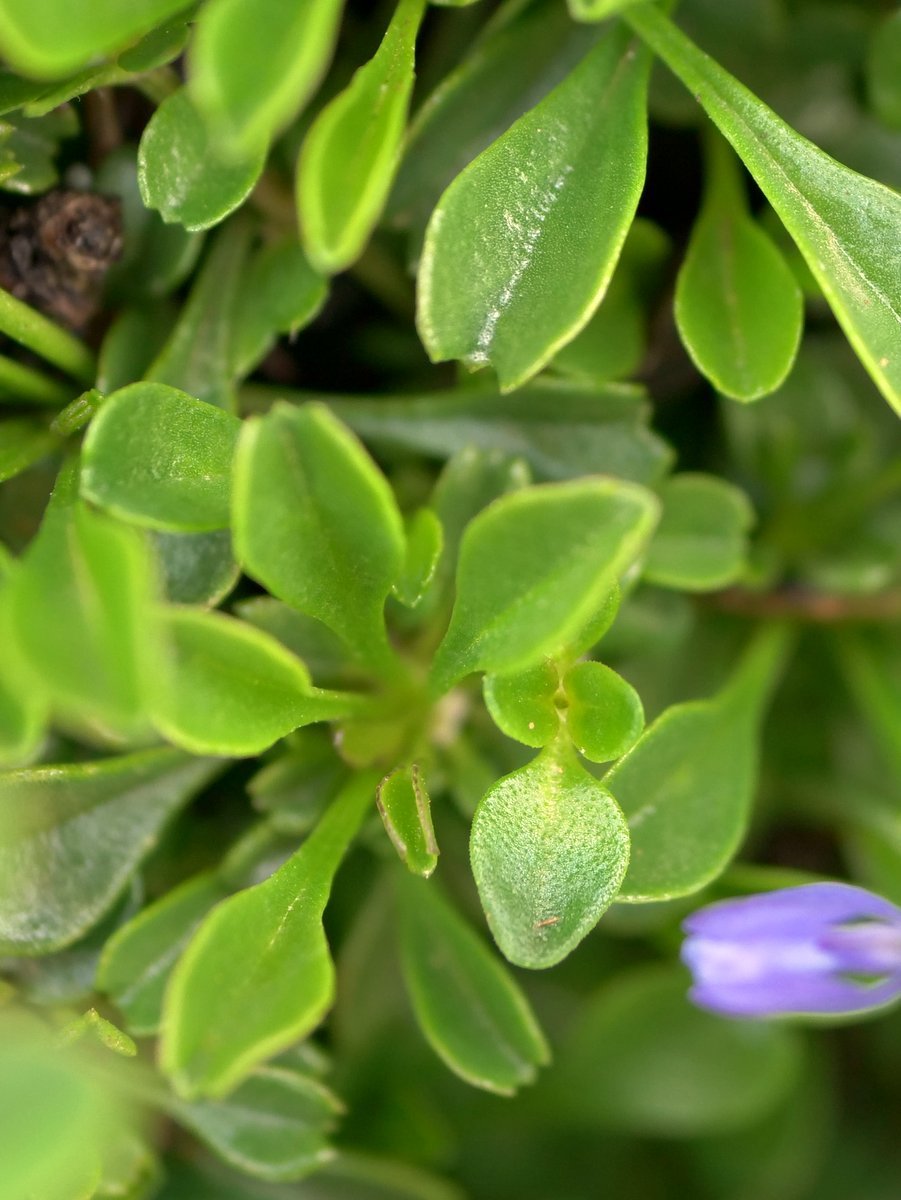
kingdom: Plantae
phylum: Tracheophyta
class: Magnoliopsida
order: Lamiales
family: Plantaginaceae
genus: Globularia
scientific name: Globularia cordifolia
